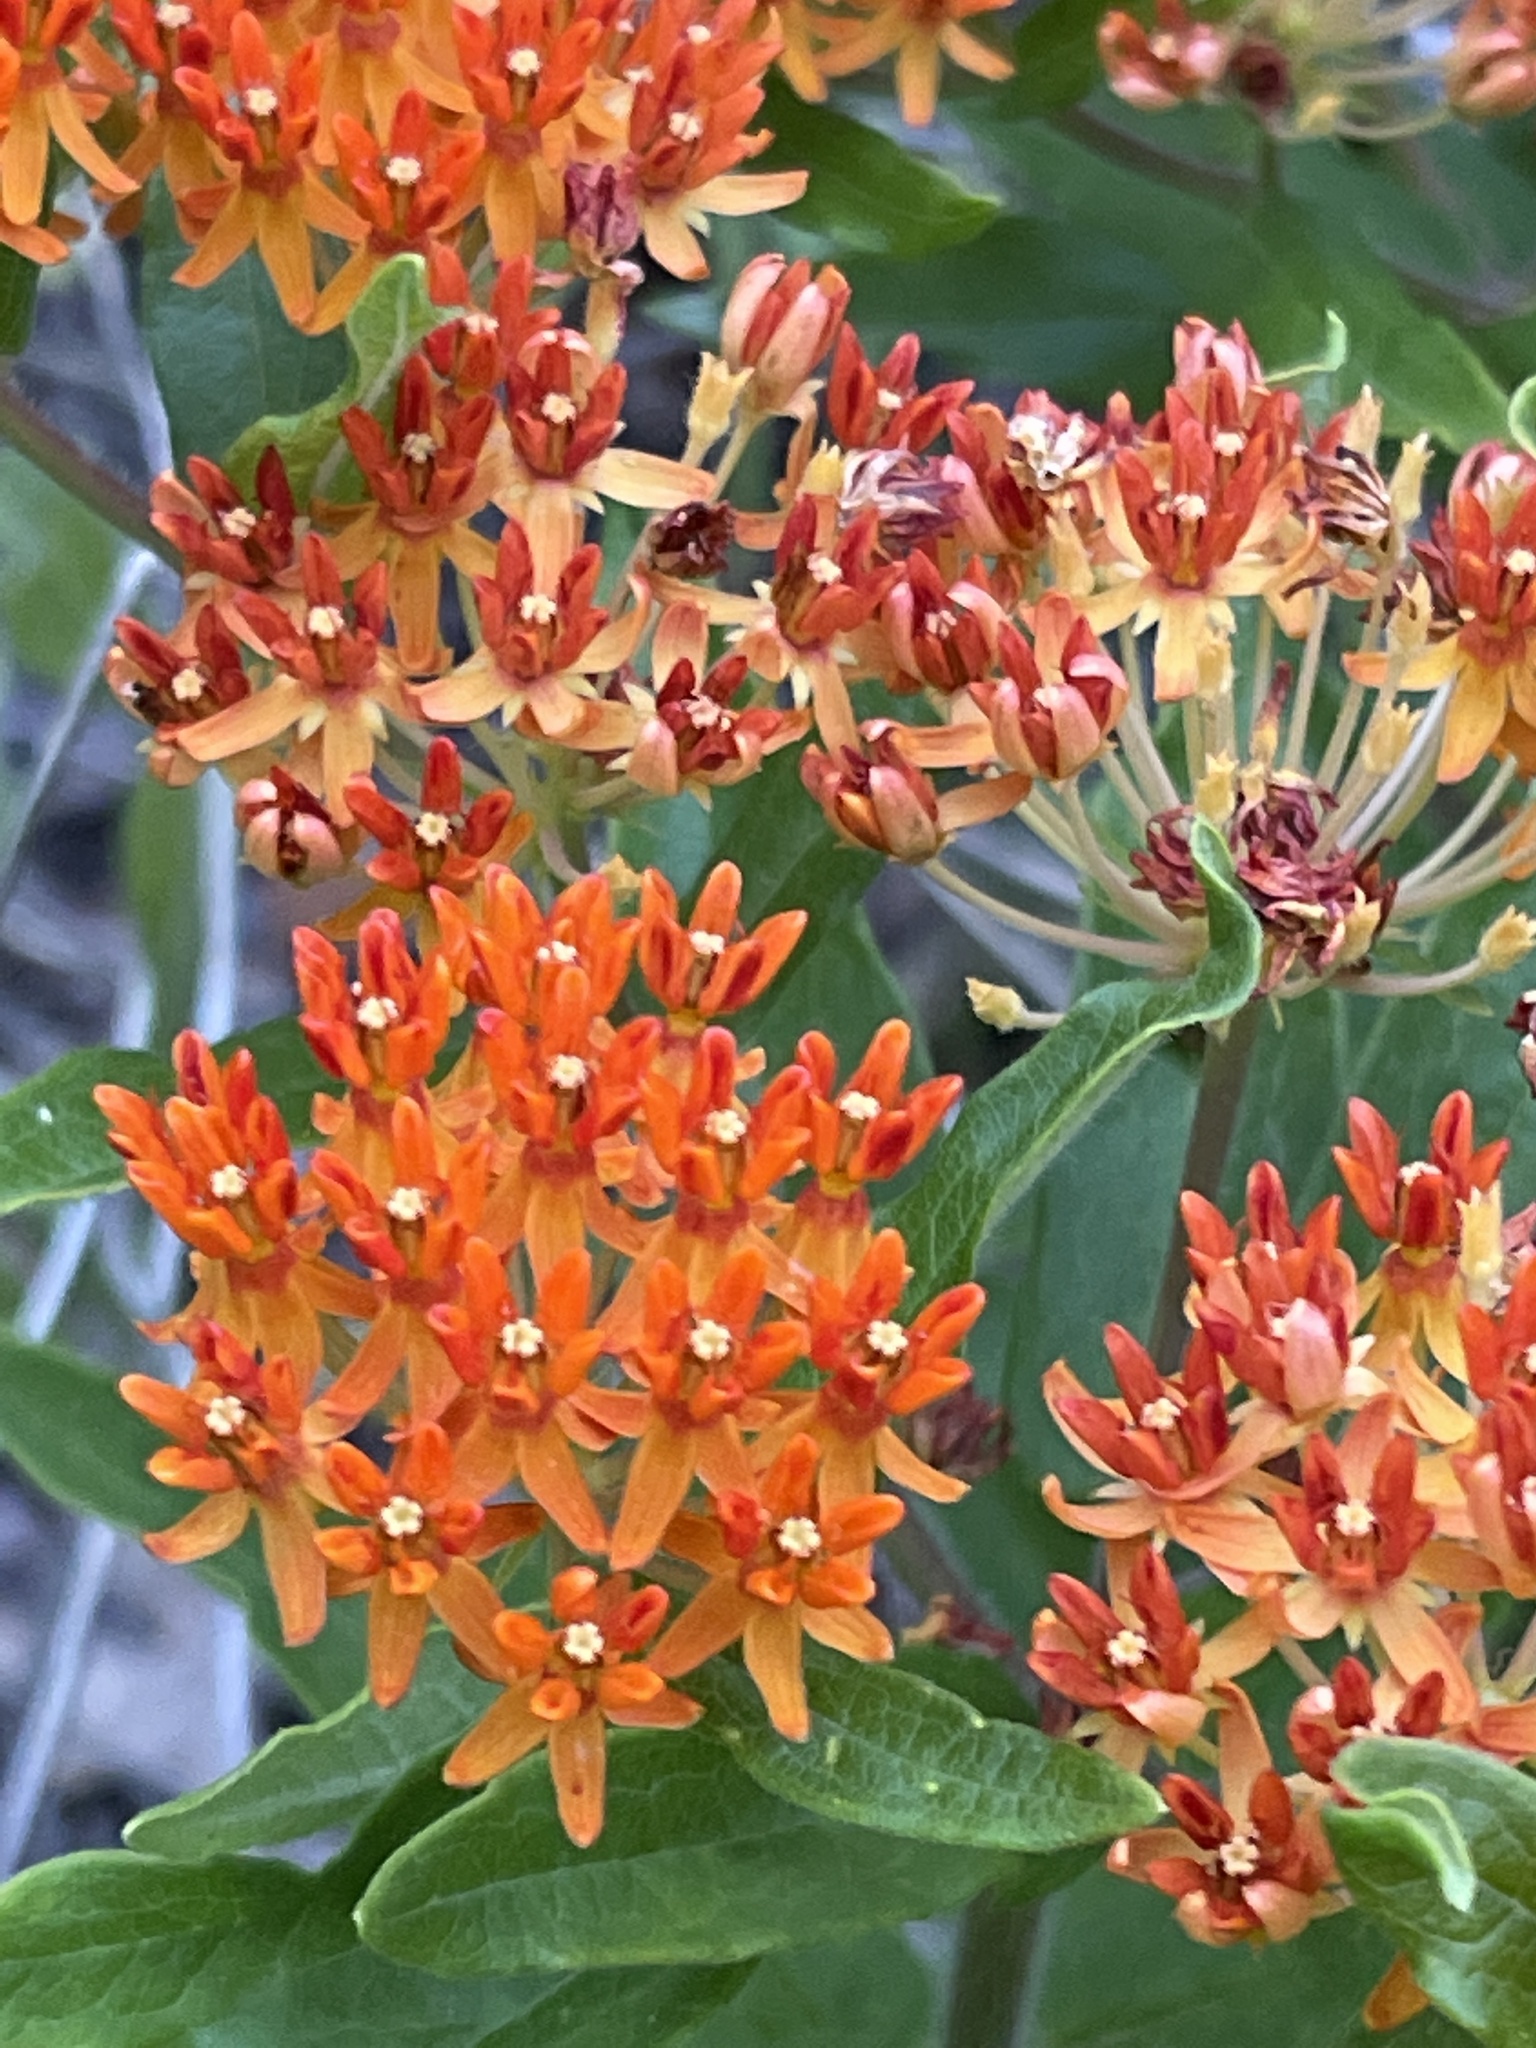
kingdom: Plantae
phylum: Tracheophyta
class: Magnoliopsida
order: Gentianales
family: Apocynaceae
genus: Asclepias
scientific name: Asclepias tuberosa
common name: Butterfly milkweed
